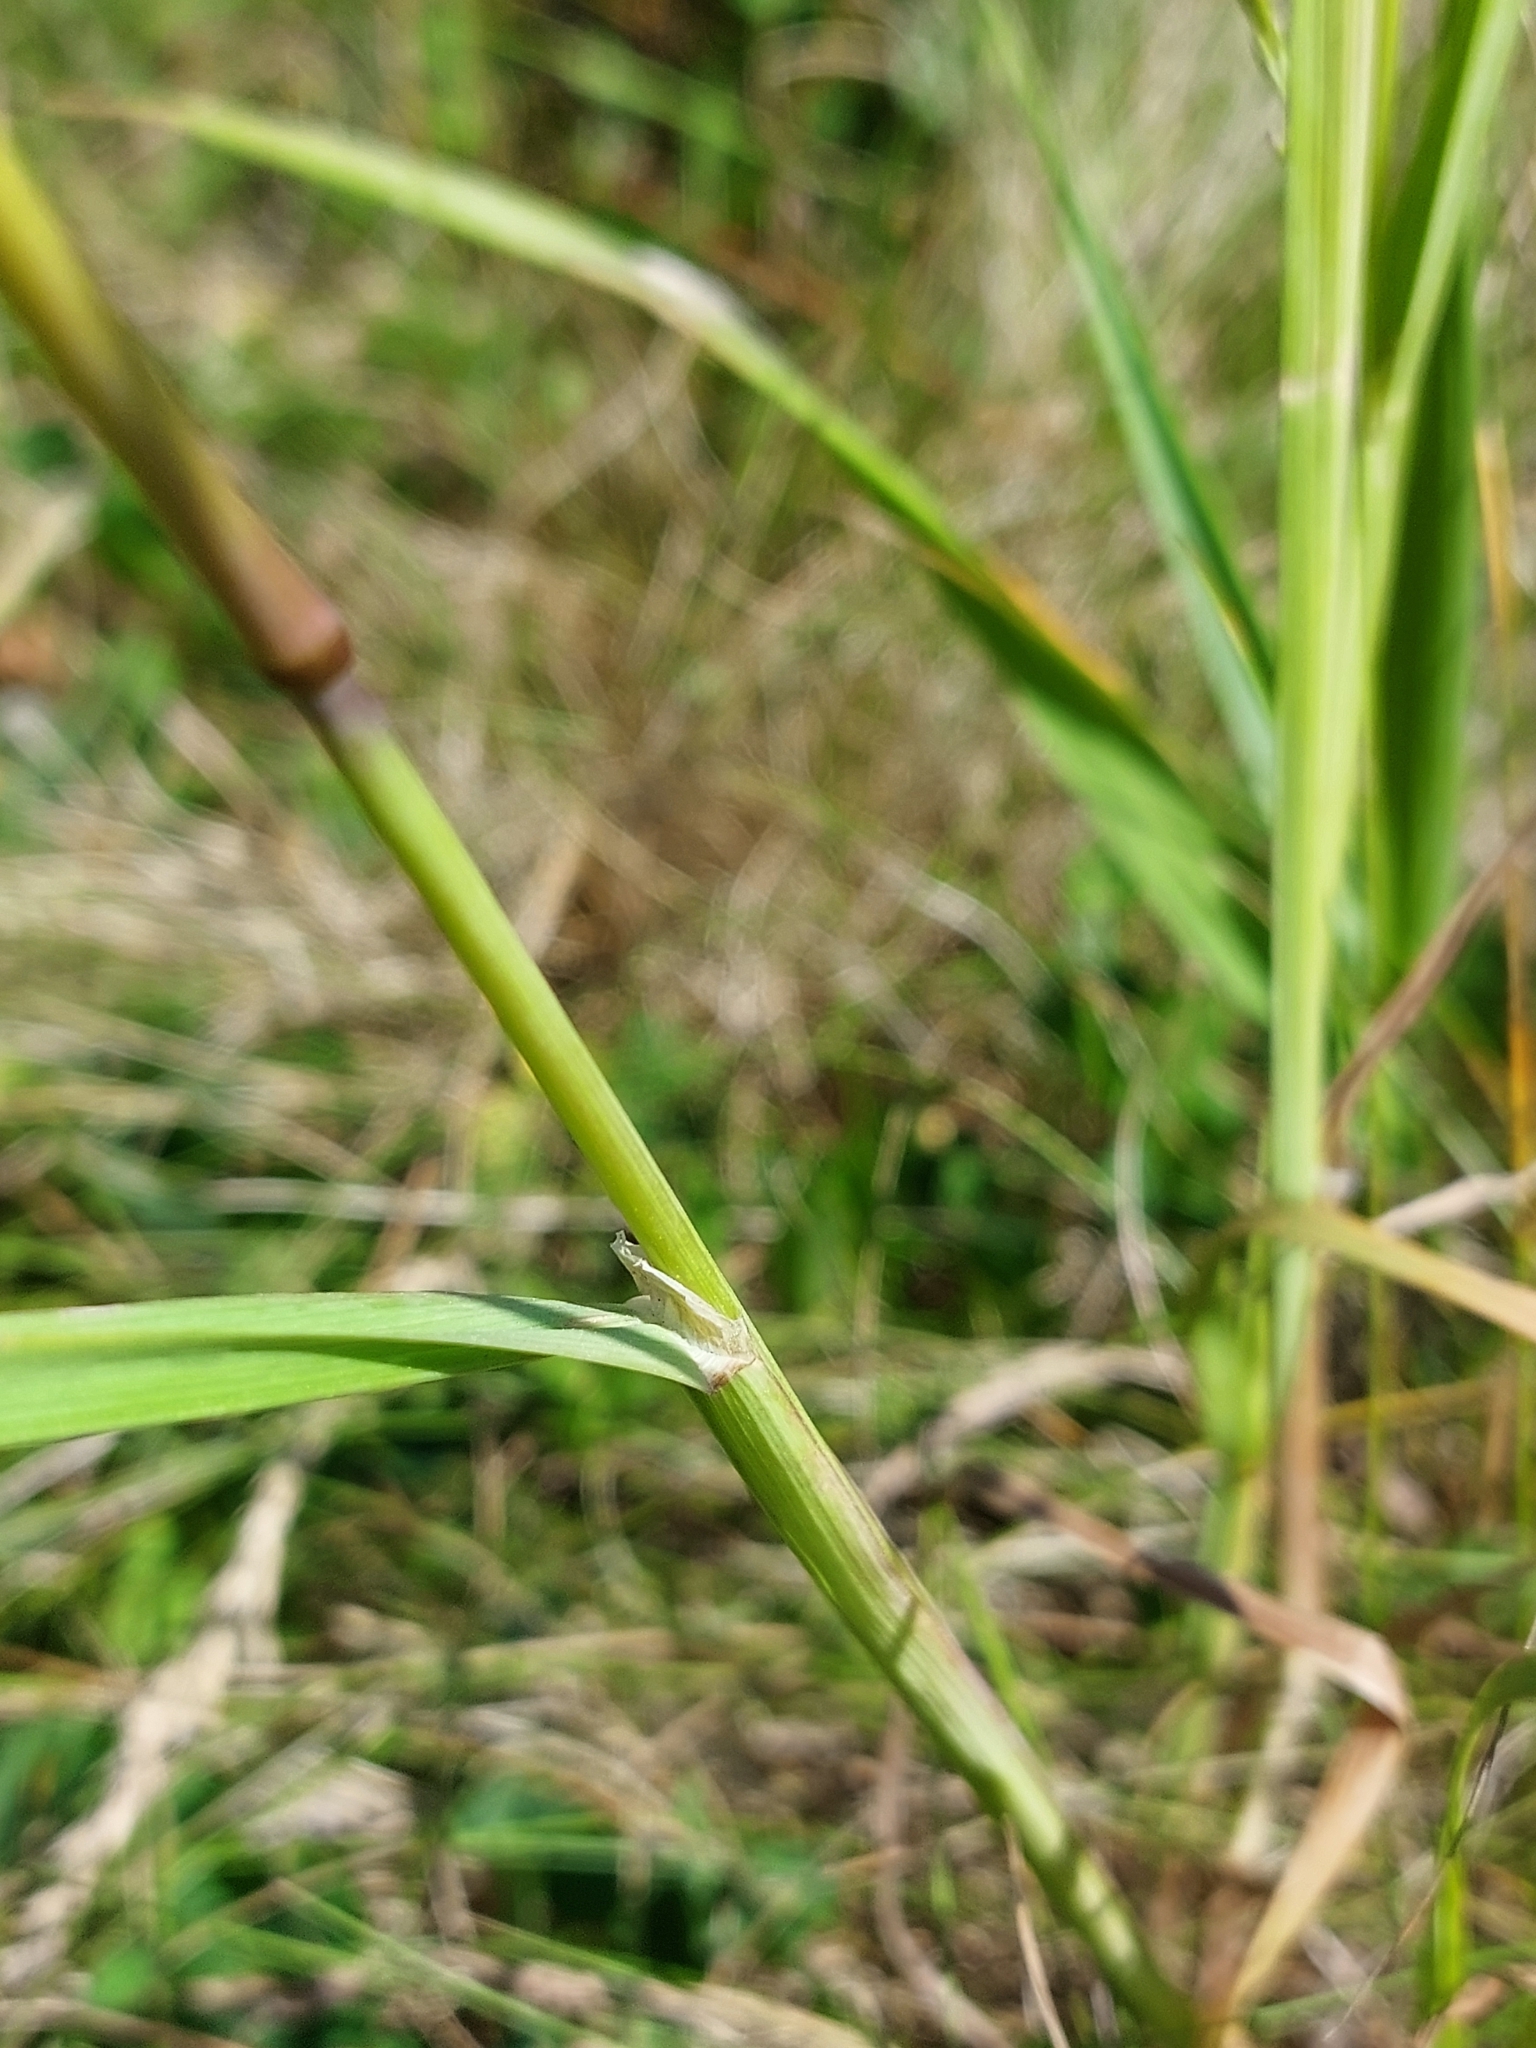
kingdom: Plantae
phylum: Tracheophyta
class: Liliopsida
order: Poales
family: Poaceae
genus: Dactylis
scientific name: Dactylis glomerata
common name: Orchardgrass
